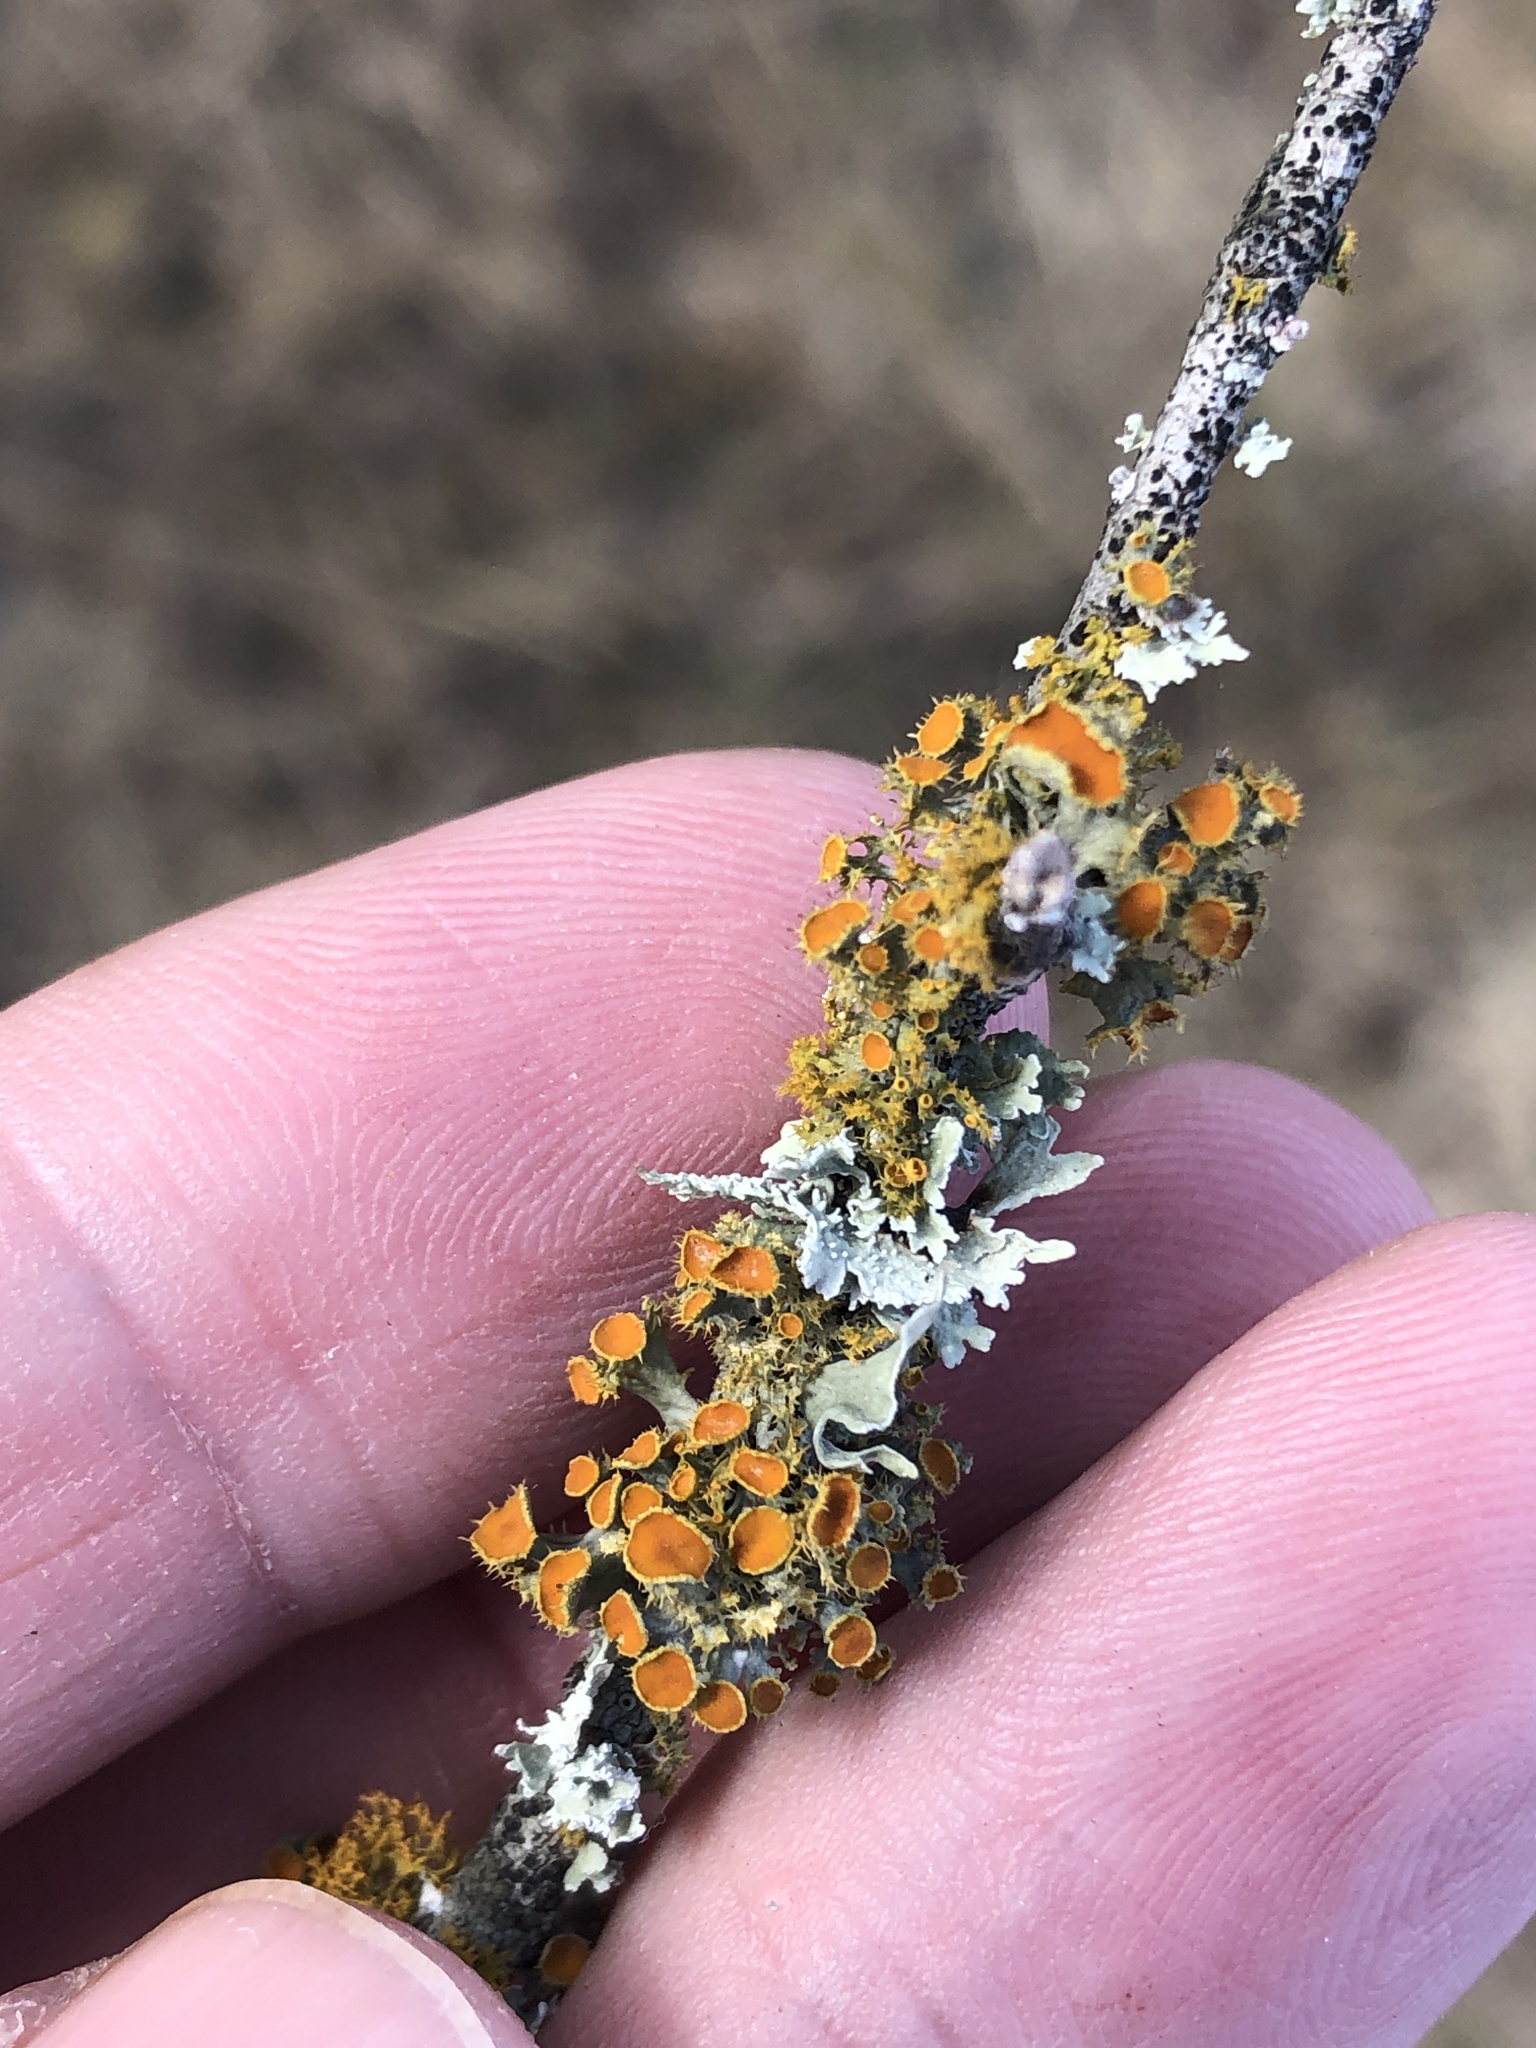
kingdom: Fungi
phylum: Ascomycota
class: Lecanoromycetes
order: Teloschistales
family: Teloschistaceae
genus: Niorma
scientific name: Niorma chrysophthalma
